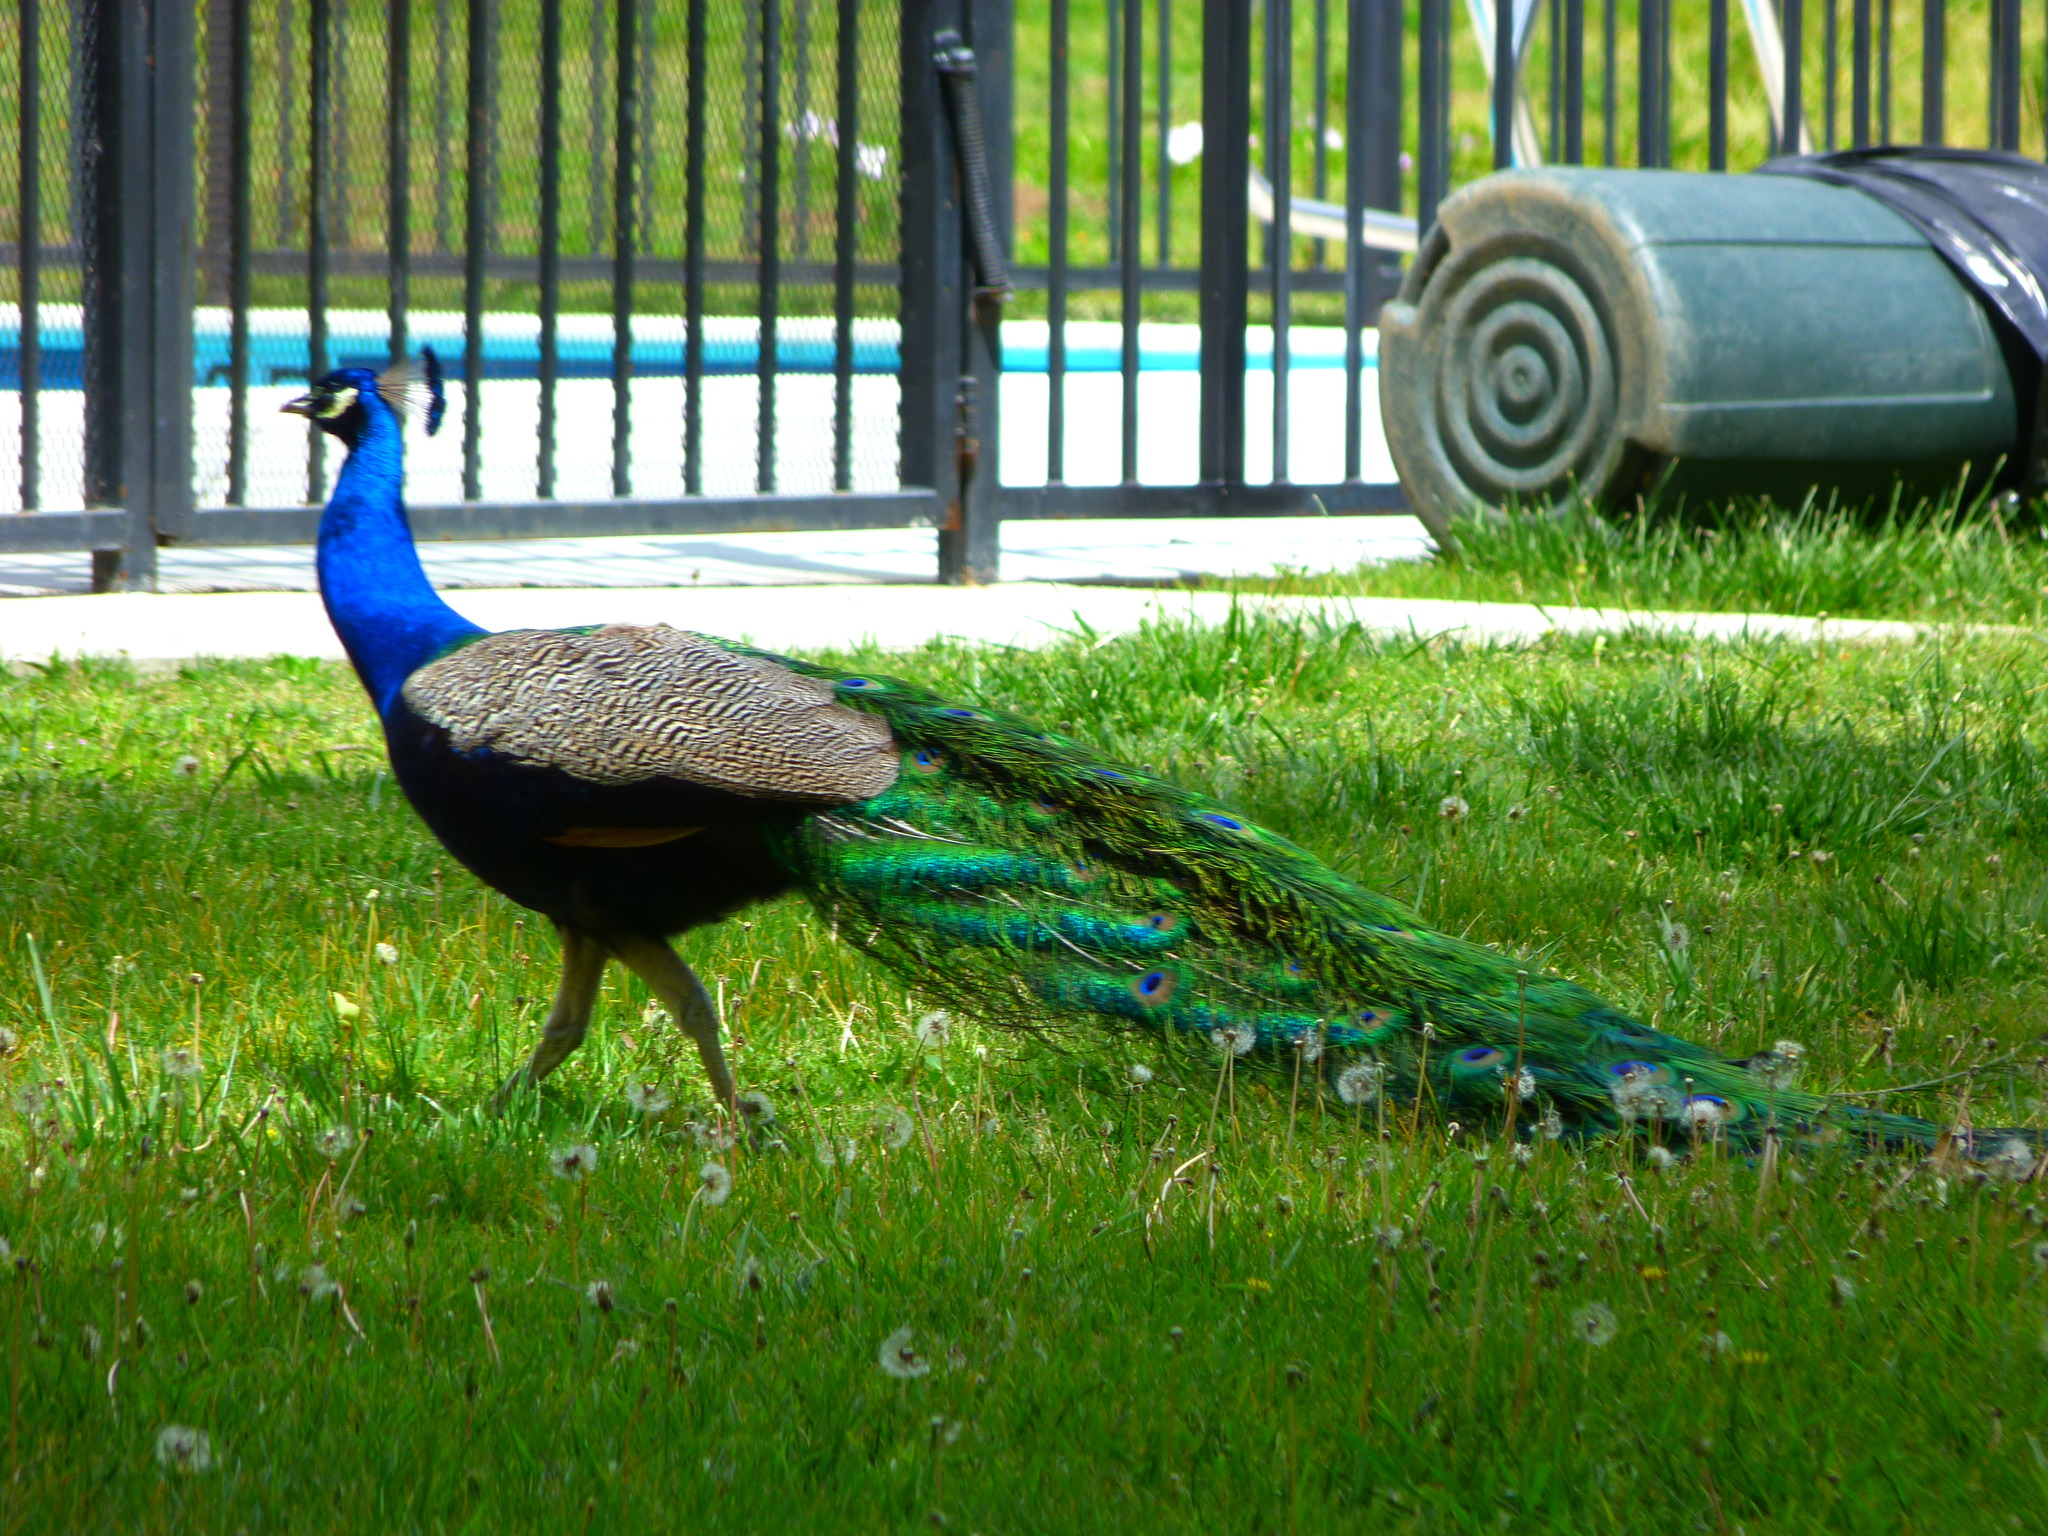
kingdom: Animalia
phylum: Chordata
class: Aves
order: Galliformes
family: Phasianidae
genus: Pavo
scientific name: Pavo cristatus
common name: Indian peafowl
